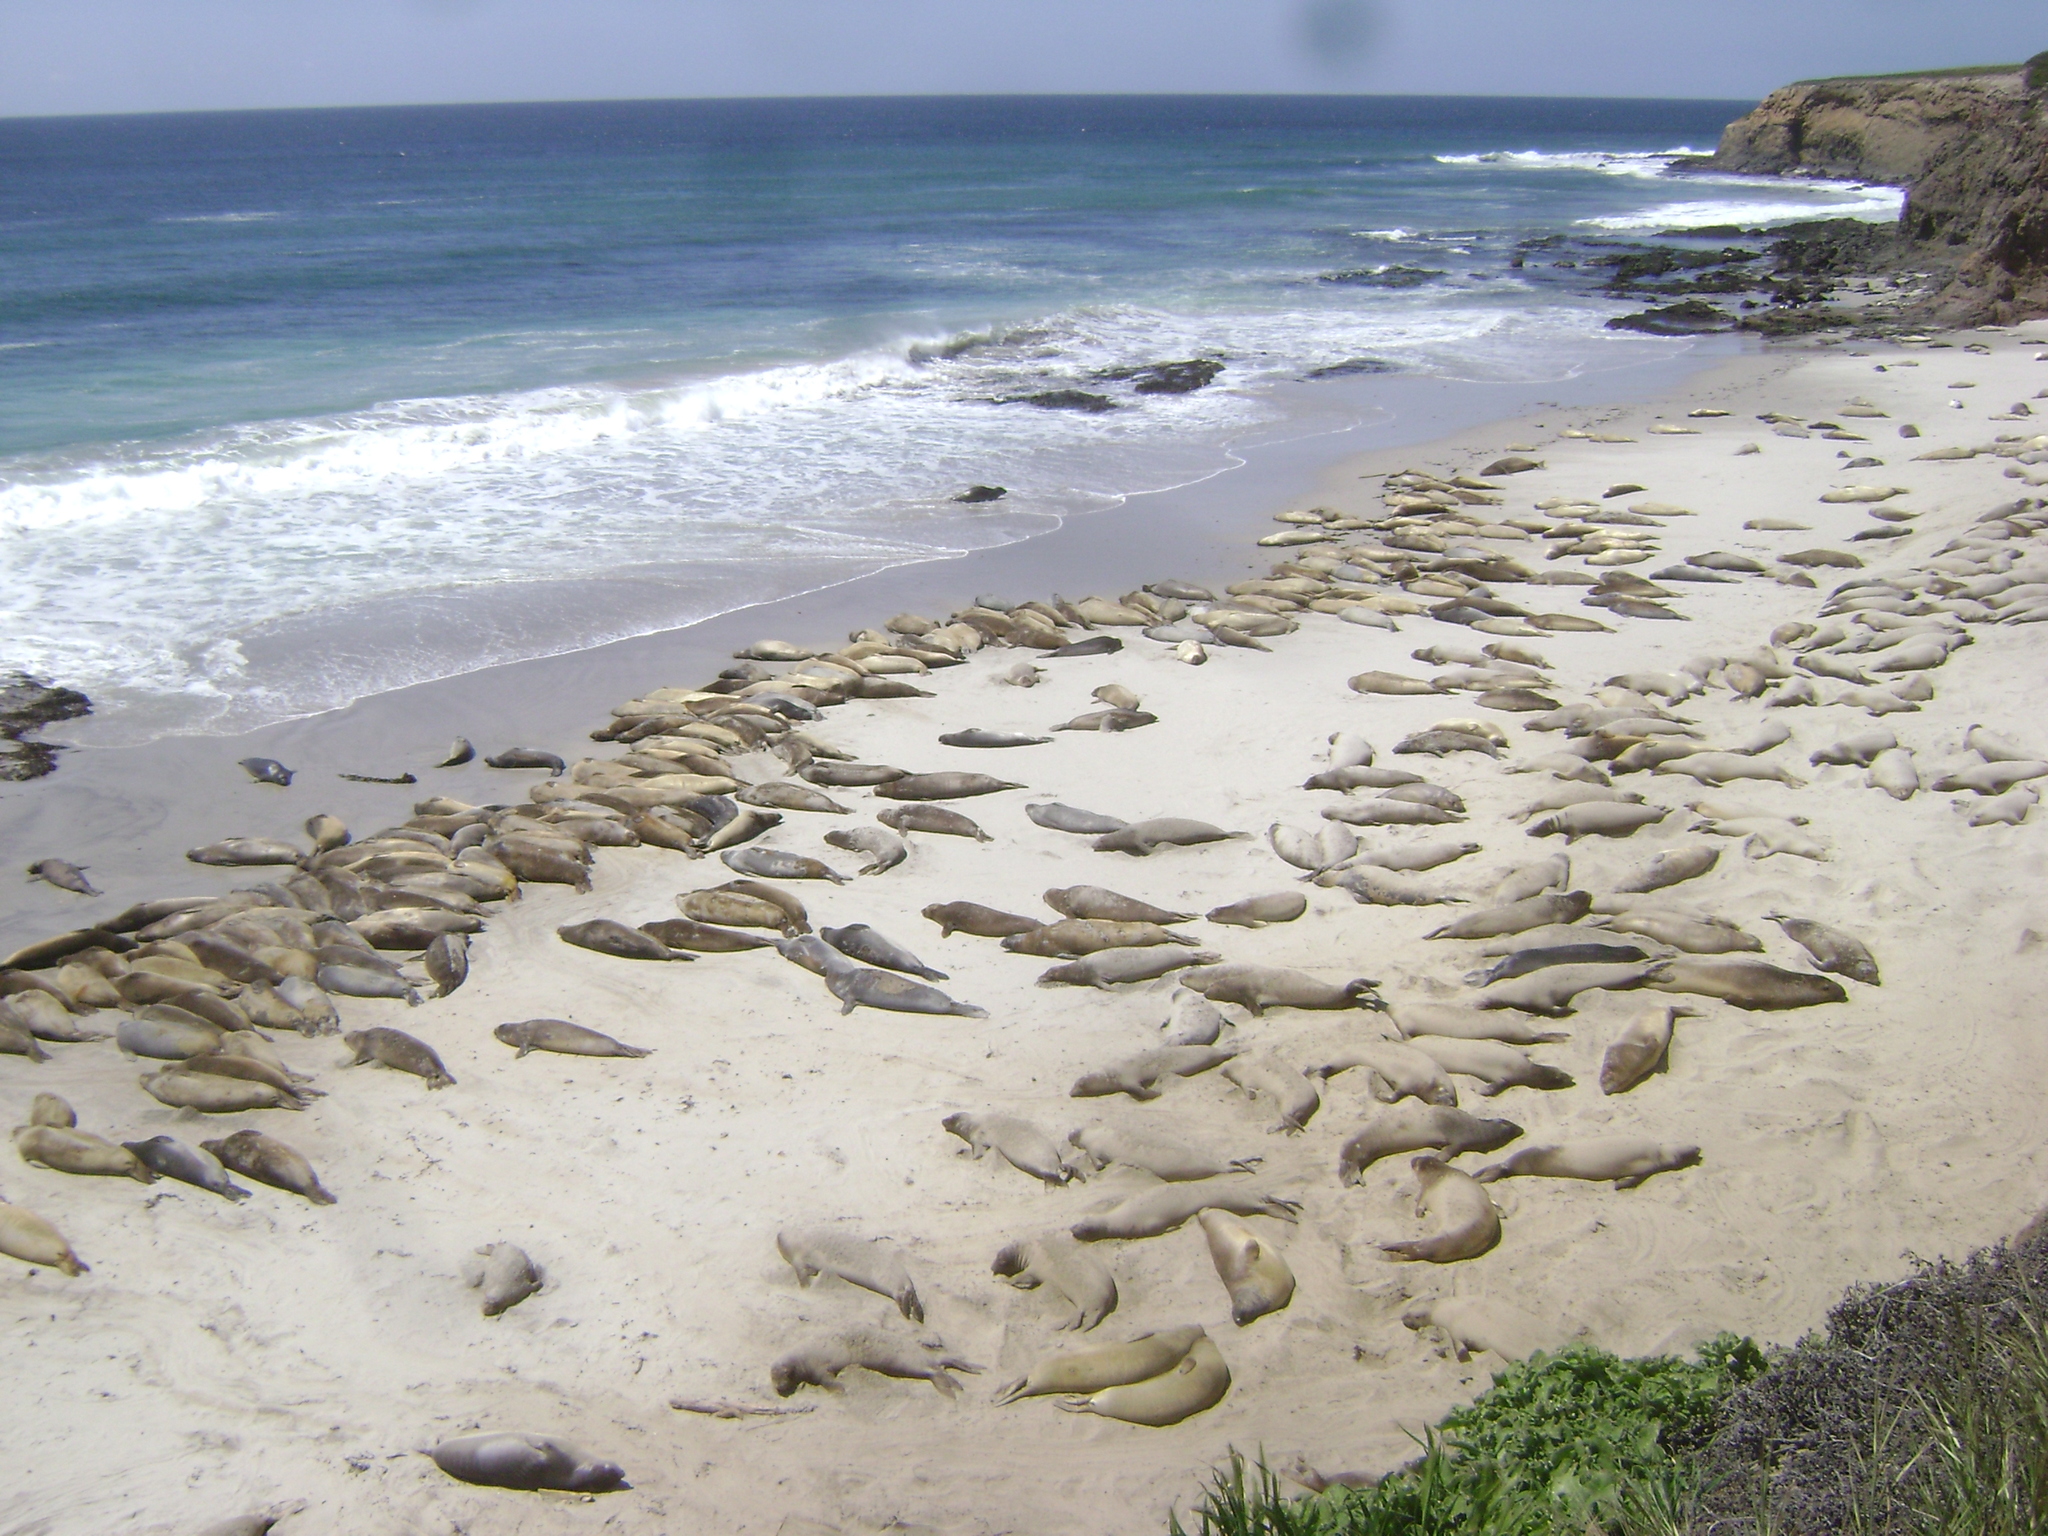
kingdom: Animalia
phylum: Chordata
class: Mammalia
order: Carnivora
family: Phocidae
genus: Mirounga
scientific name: Mirounga angustirostris
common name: Northern elephant seal
